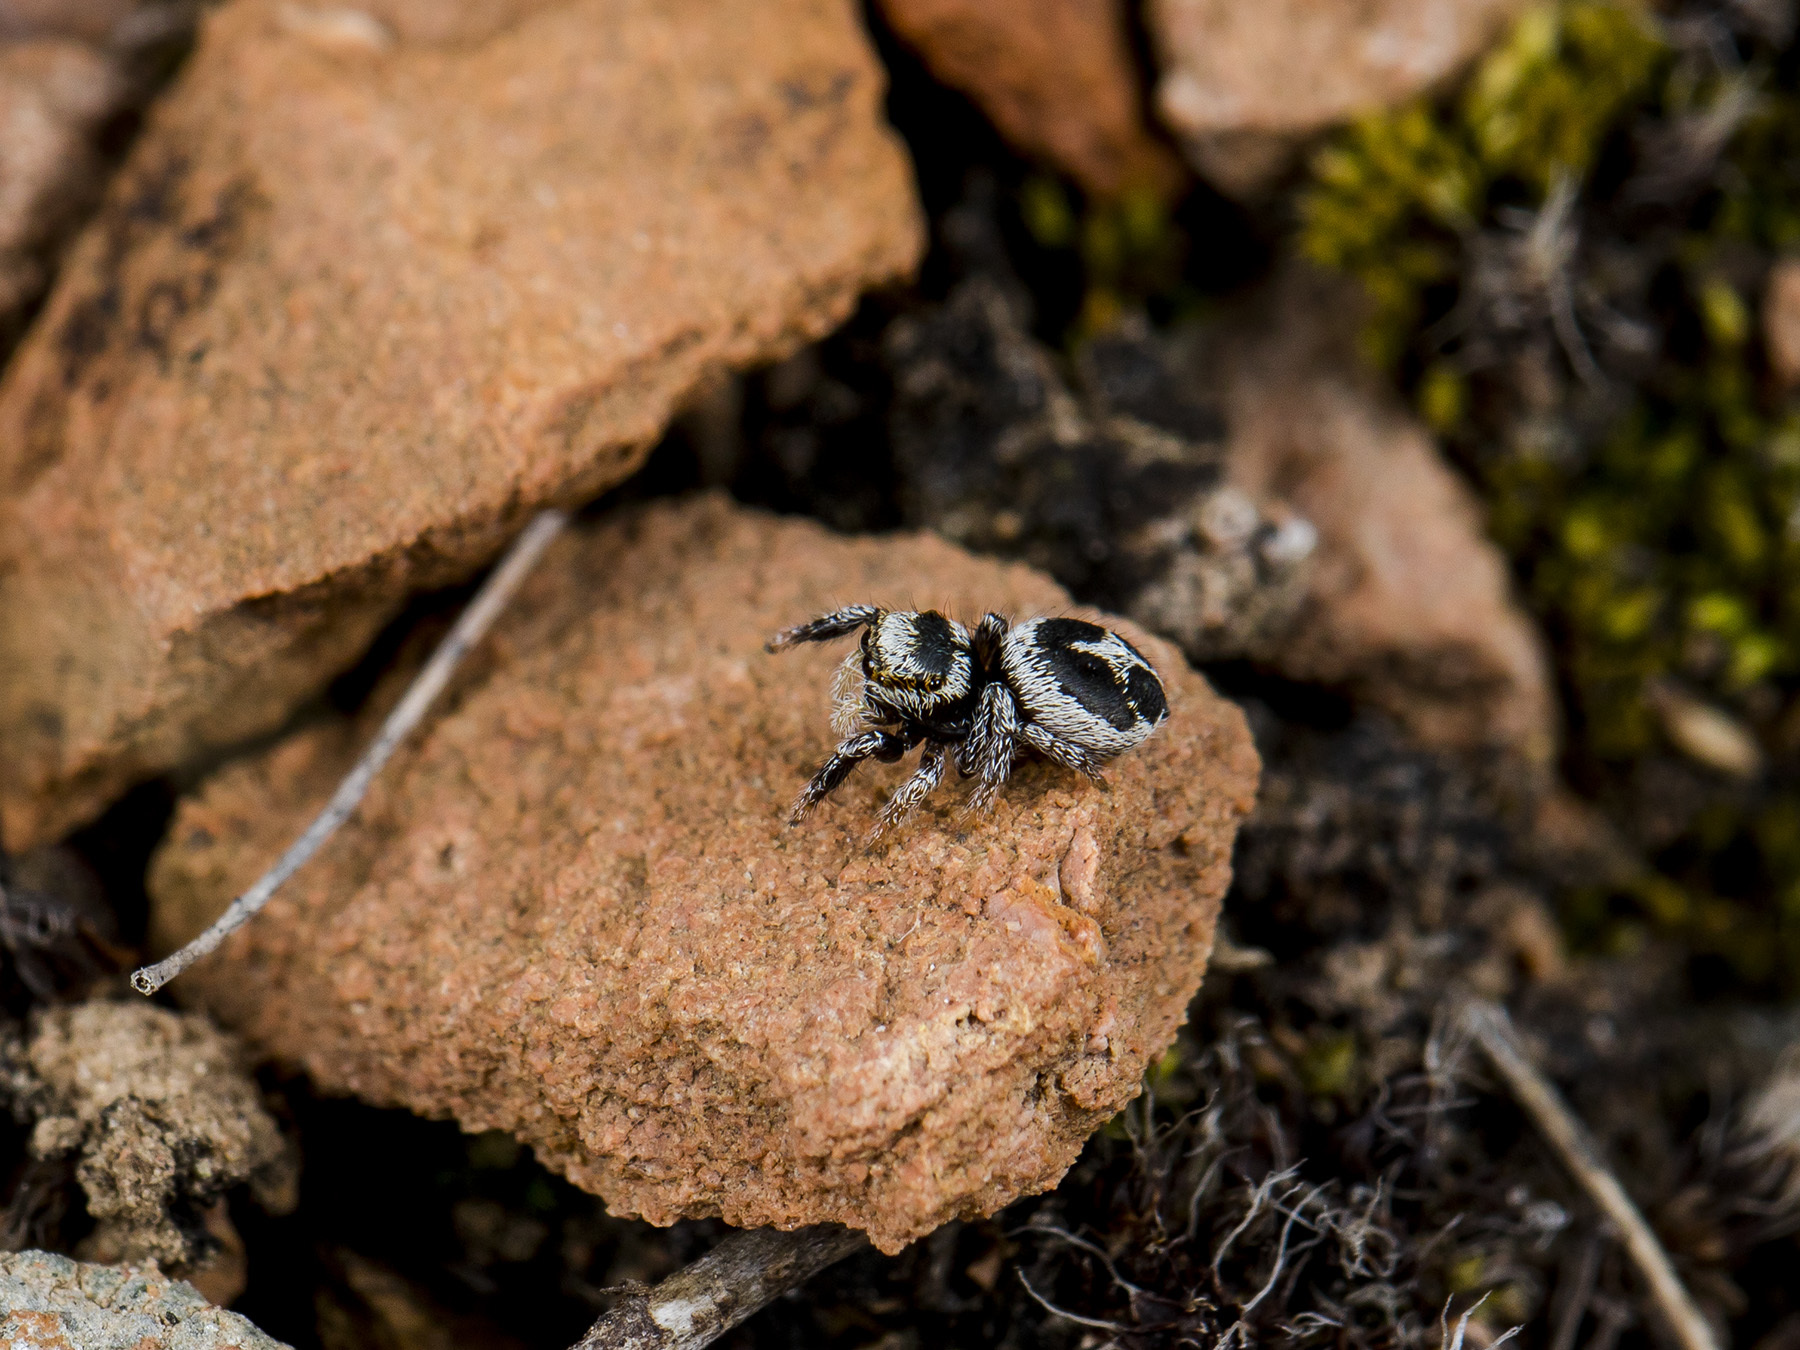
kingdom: Animalia
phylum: Arthropoda
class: Arachnida
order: Araneae
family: Salticidae
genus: Pellenes
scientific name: Pellenes geniculatus
